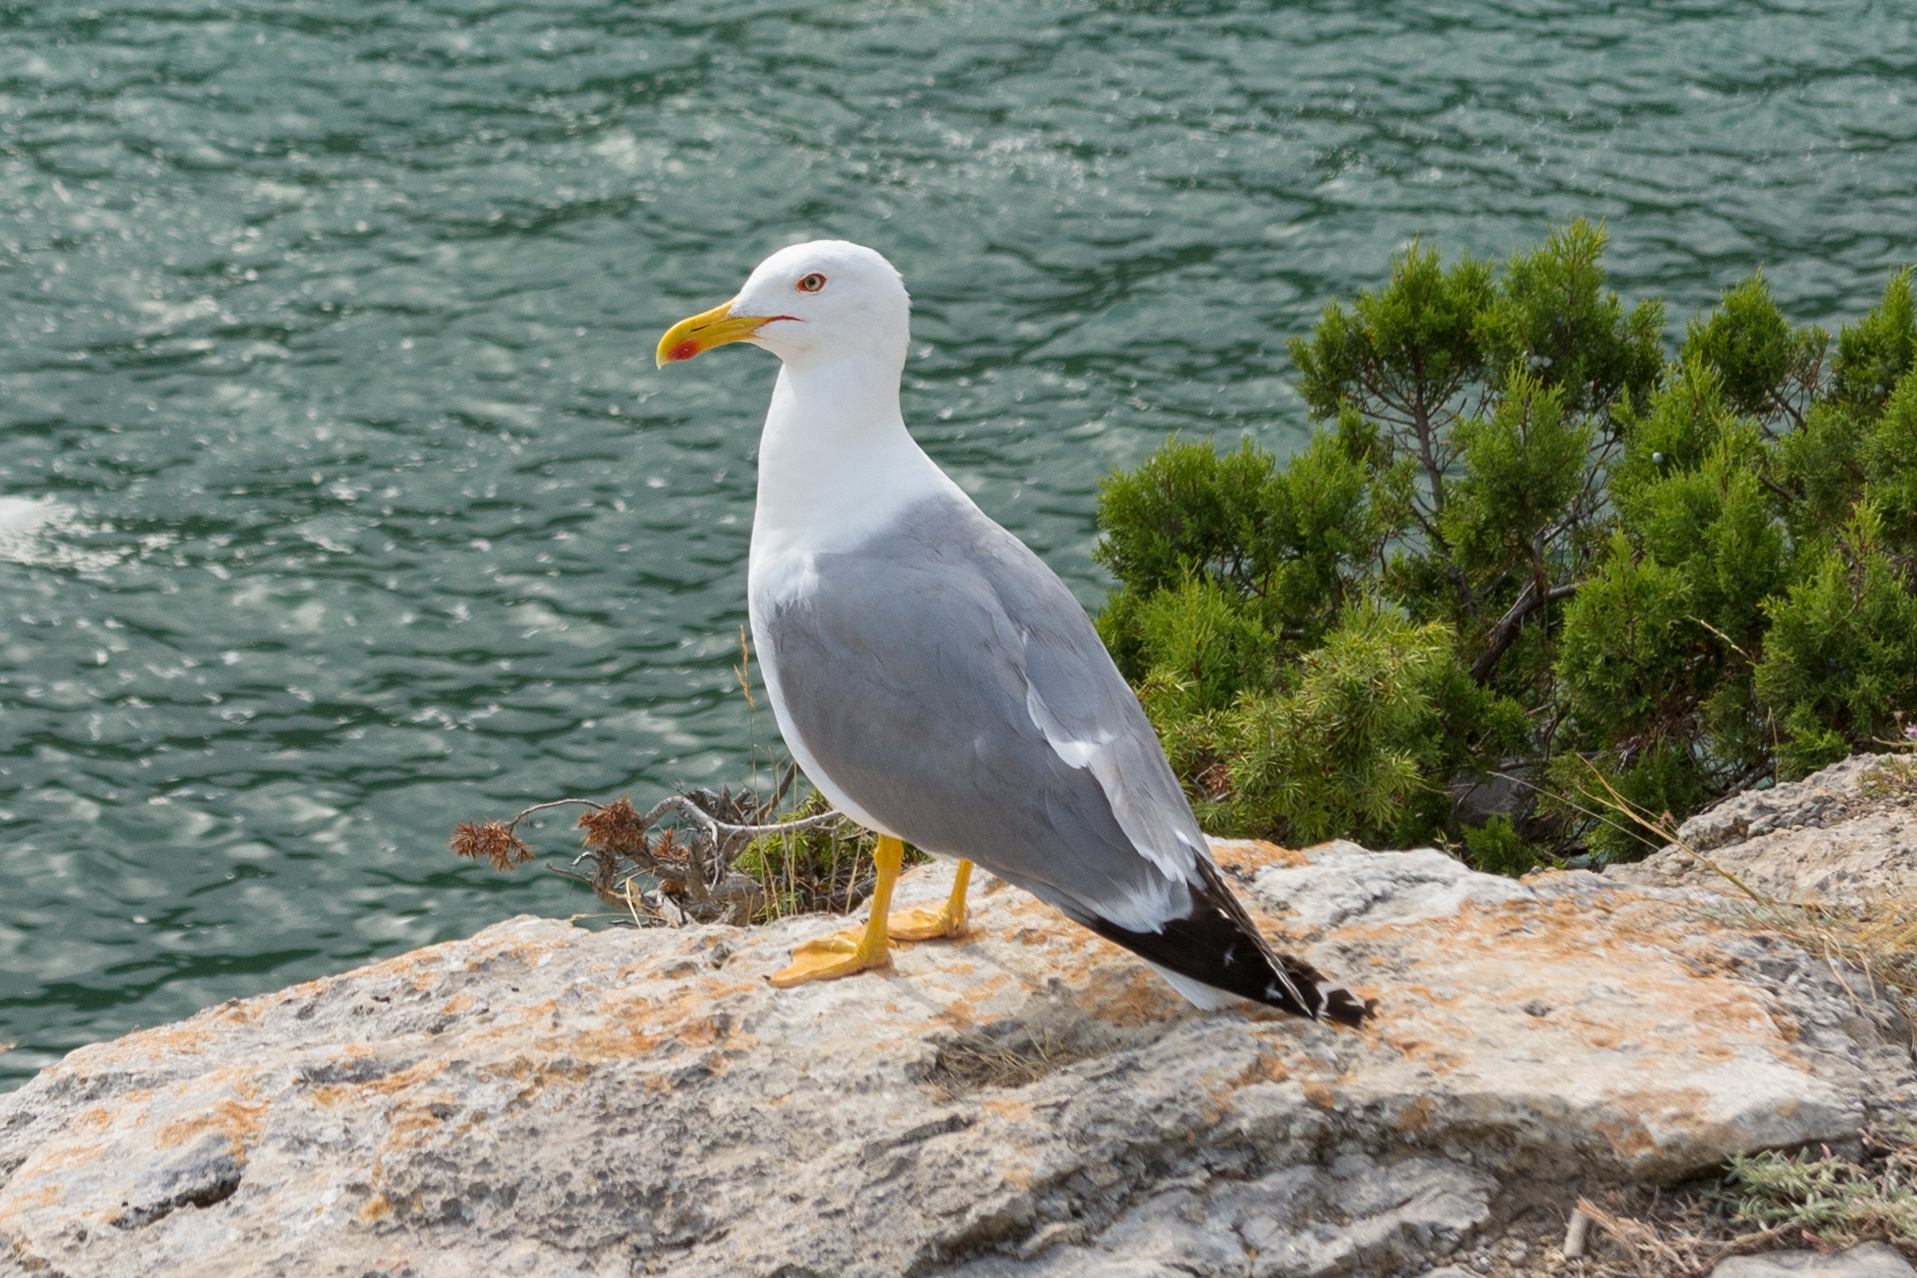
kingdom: Animalia
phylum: Chordata
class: Aves
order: Charadriiformes
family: Laridae
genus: Larus
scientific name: Larus michahellis
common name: Yellow-legged gull
